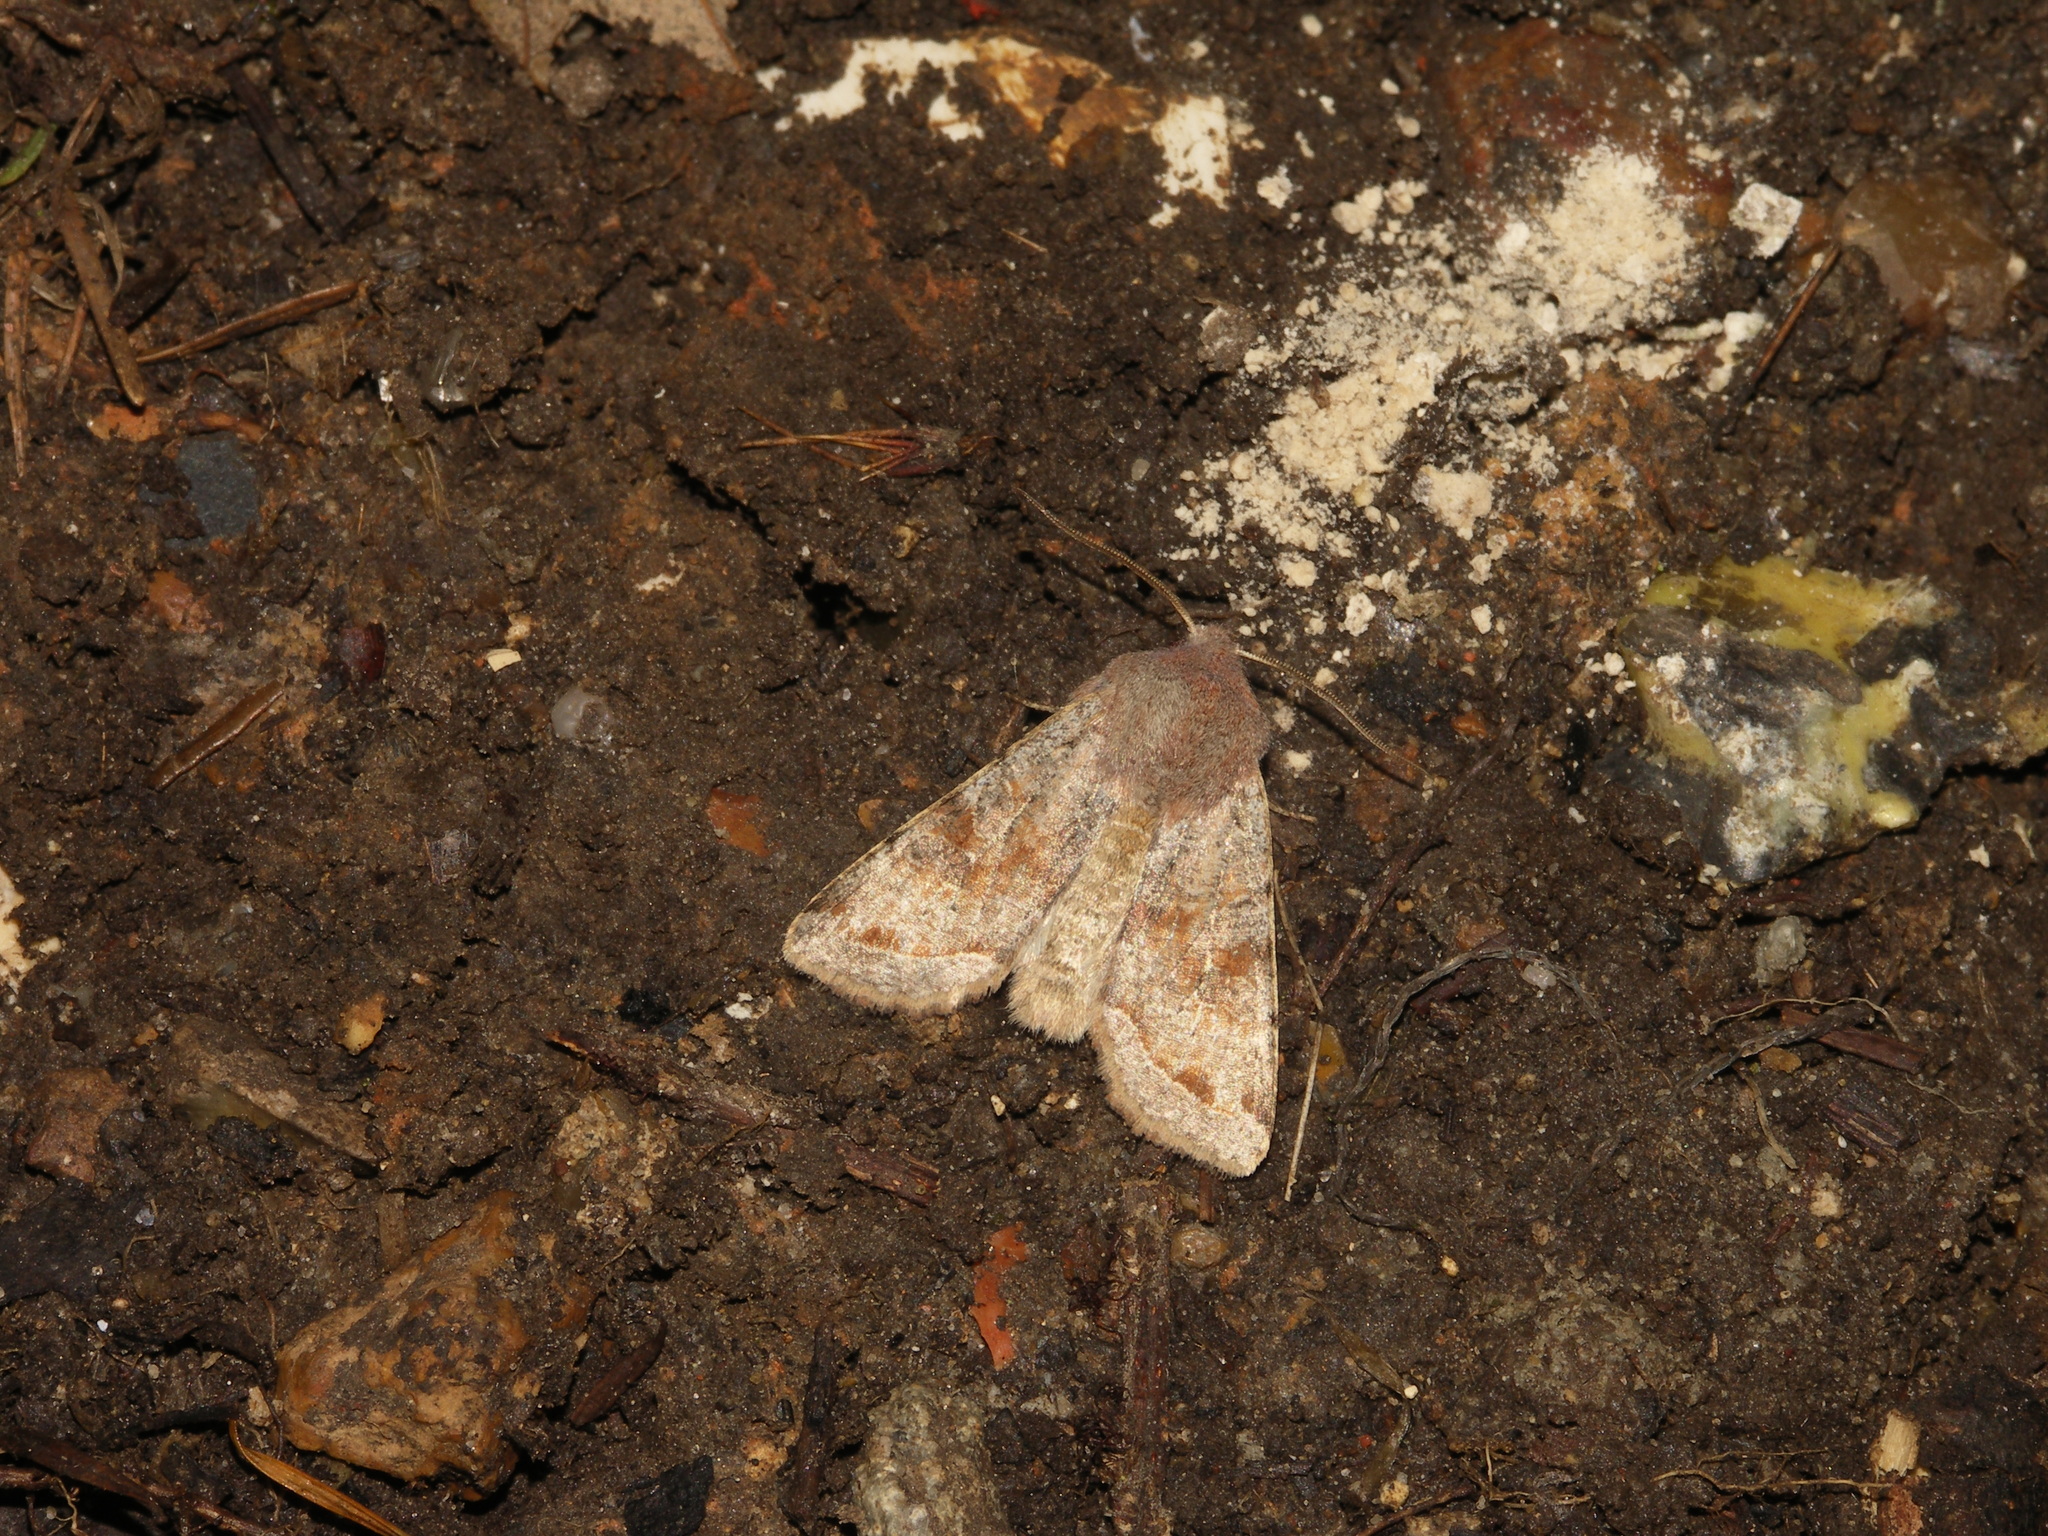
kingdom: Animalia
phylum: Arthropoda
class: Insecta
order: Lepidoptera
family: Noctuidae
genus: Orthosia
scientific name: Orthosia incerta
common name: Clouded drab
